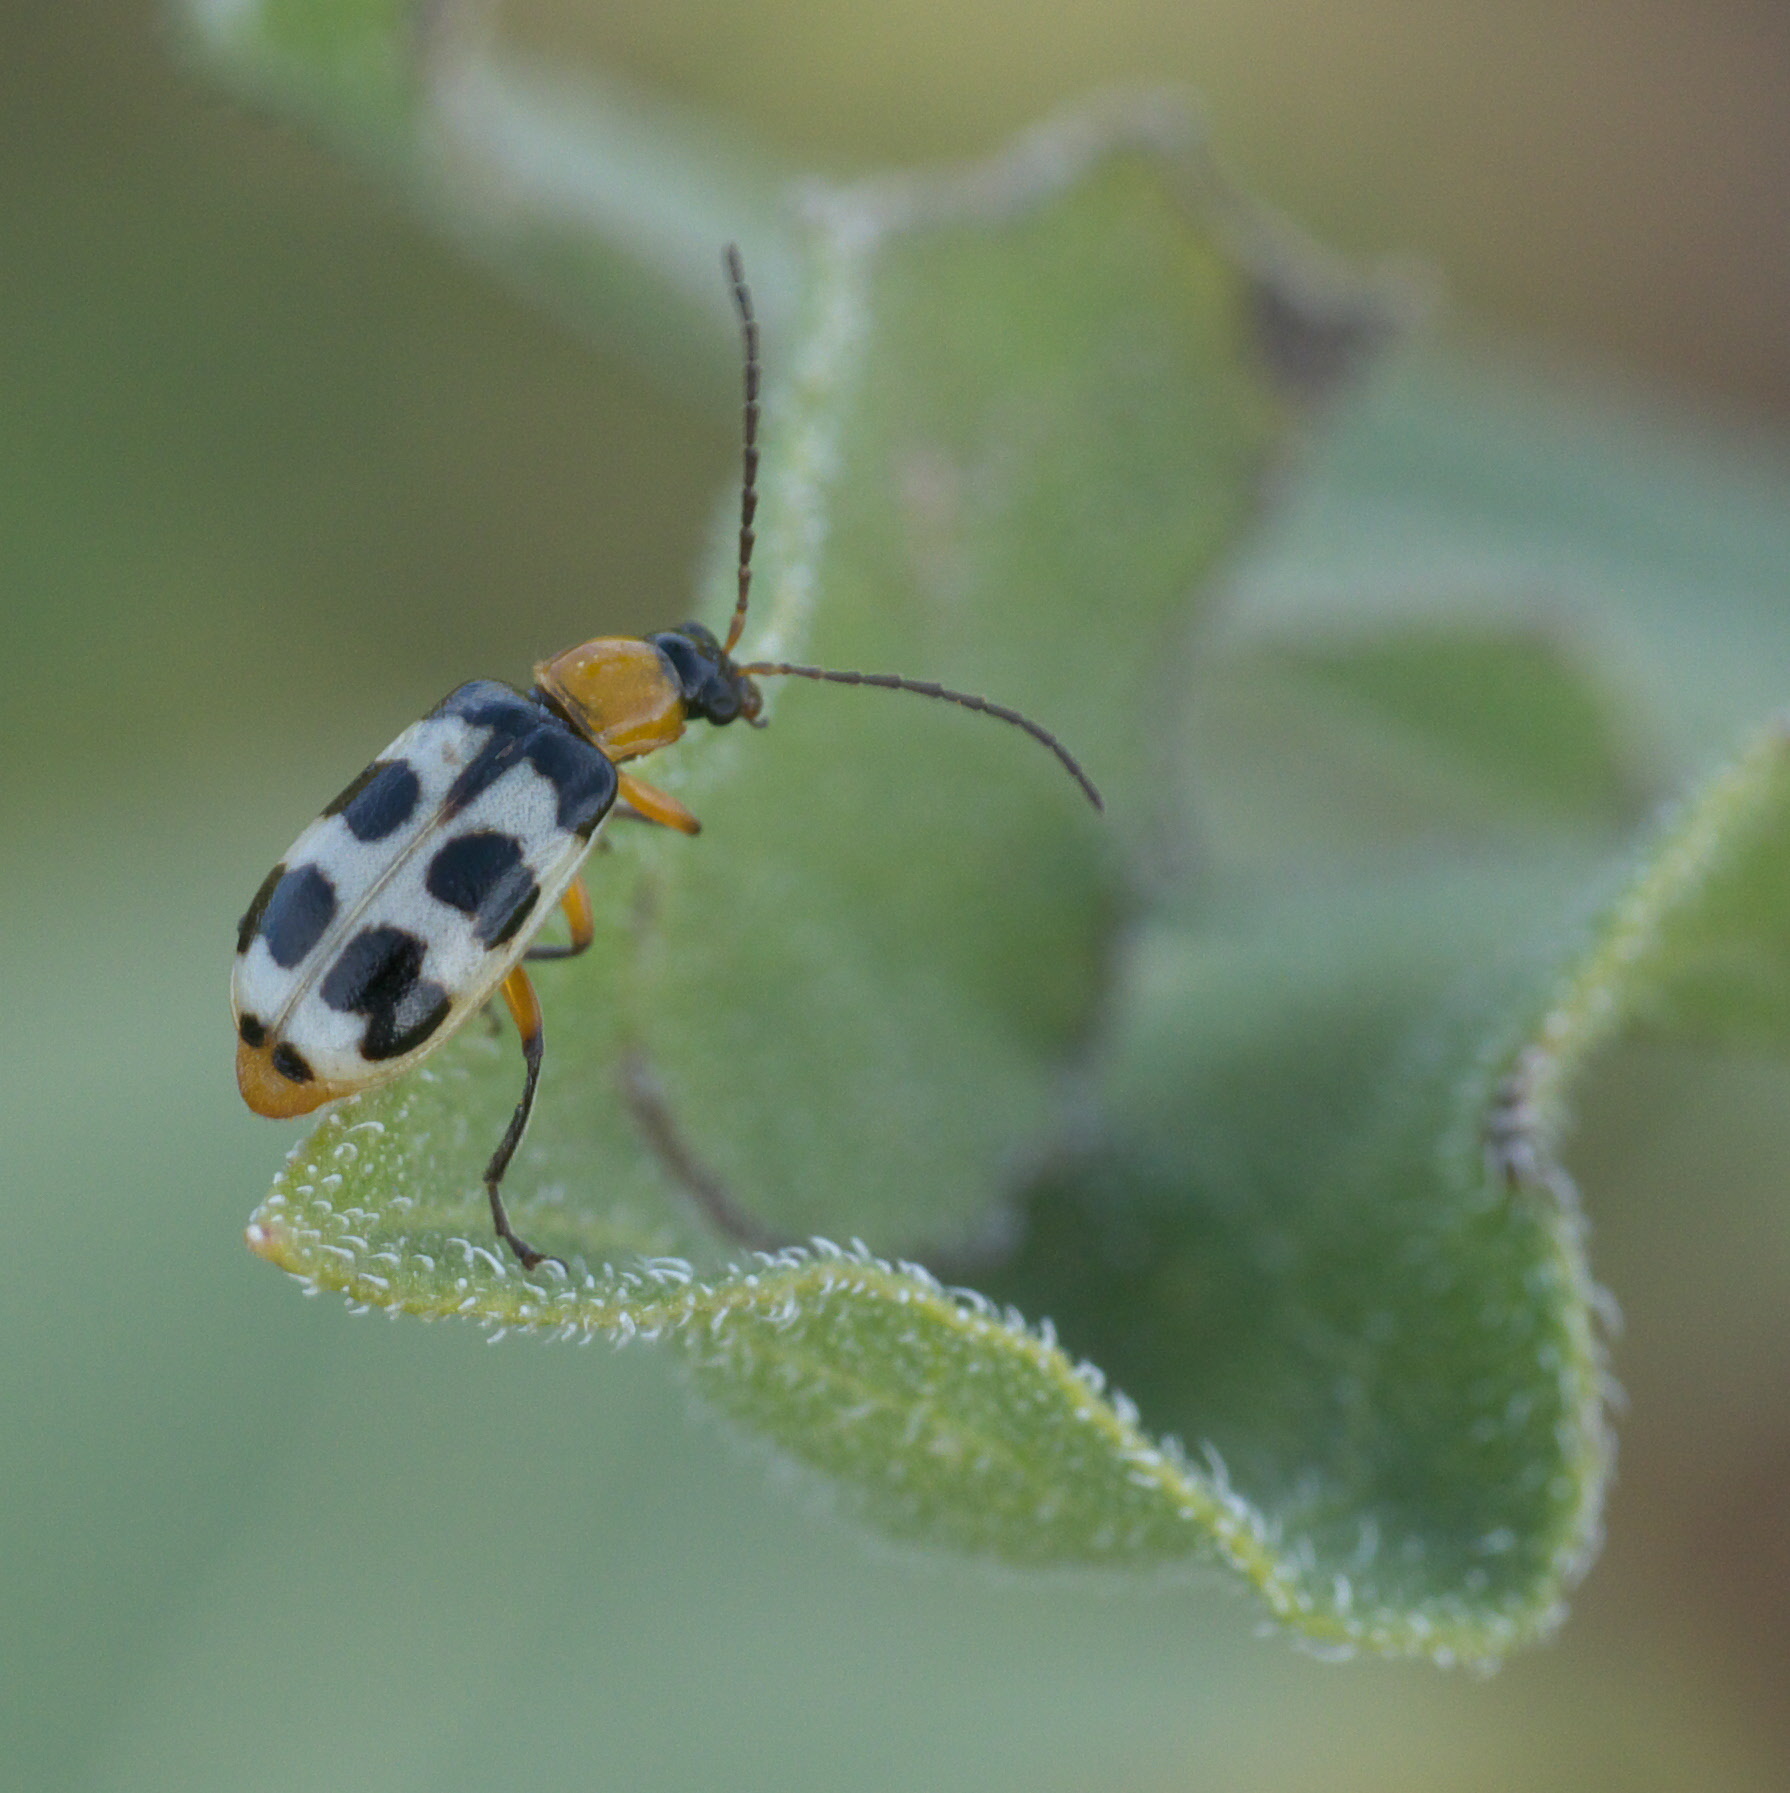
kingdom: Animalia
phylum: Arthropoda
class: Insecta
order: Coleoptera
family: Chrysomelidae
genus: Paranapiacaba
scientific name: Paranapiacaba tricincta
